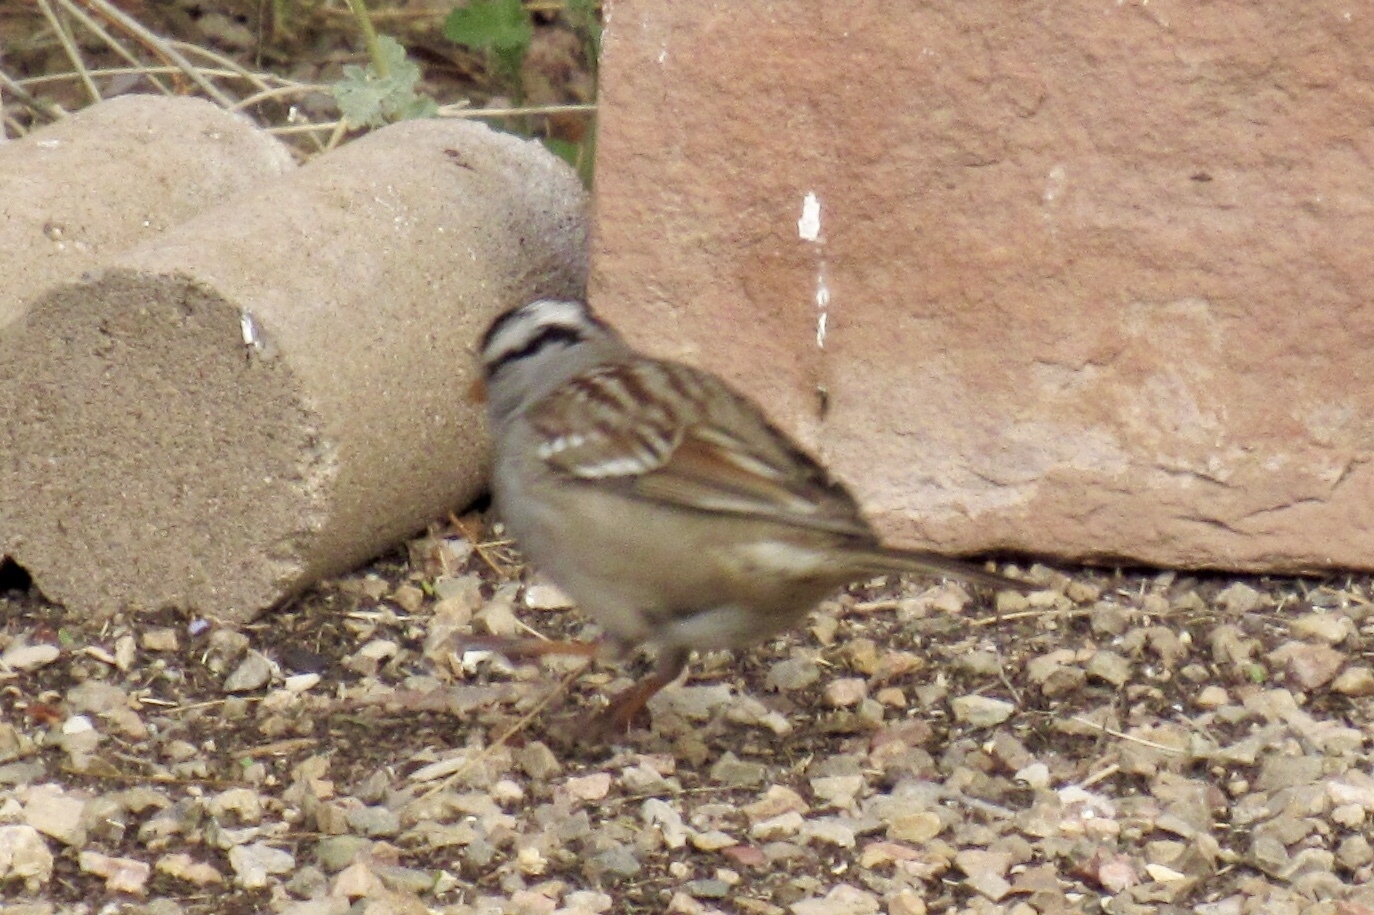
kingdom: Animalia
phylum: Chordata
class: Aves
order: Passeriformes
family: Passerellidae
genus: Zonotrichia
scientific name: Zonotrichia leucophrys
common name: White-crowned sparrow
